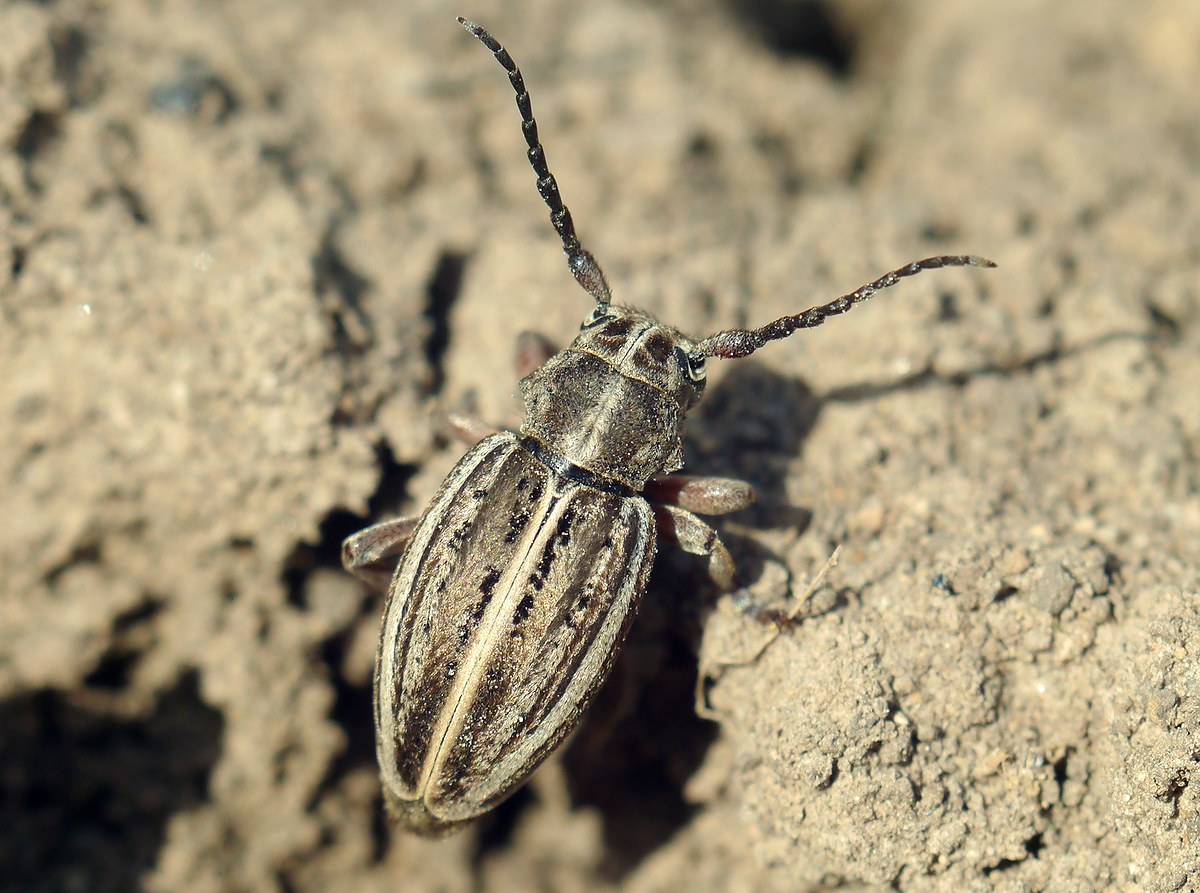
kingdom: Animalia
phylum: Arthropoda
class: Insecta
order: Coleoptera
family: Cerambycidae
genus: Dorcadion
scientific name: Dorcadion cinerarium
